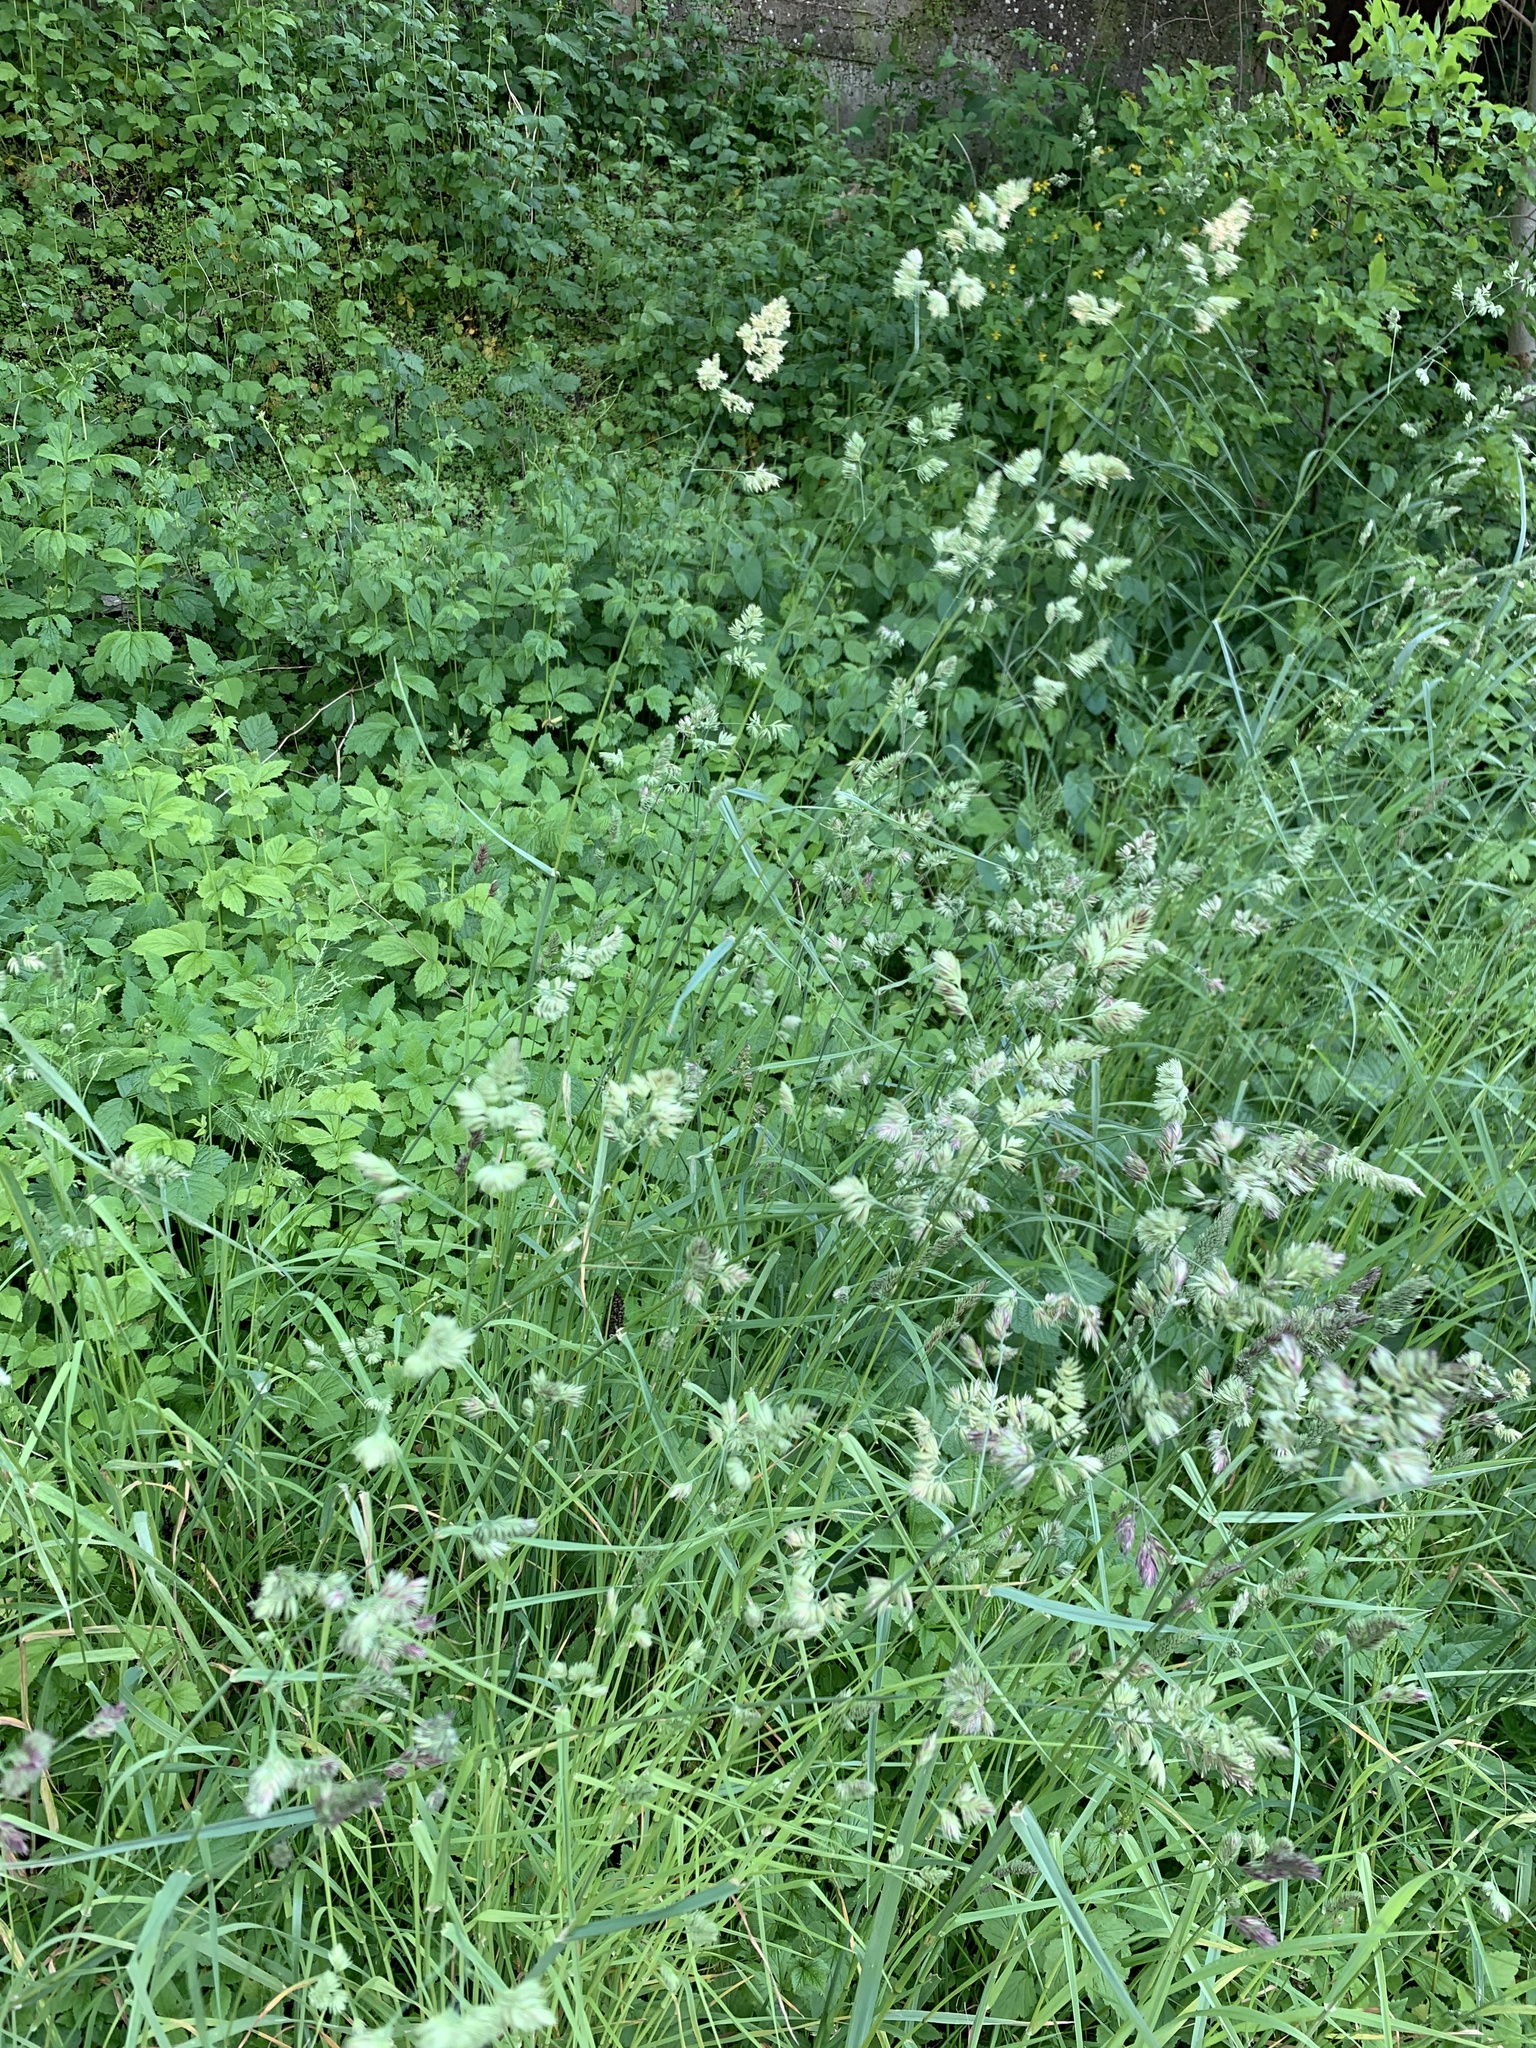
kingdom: Plantae
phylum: Tracheophyta
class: Liliopsida
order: Poales
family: Poaceae
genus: Dactylis
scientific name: Dactylis glomerata
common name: Orchardgrass
